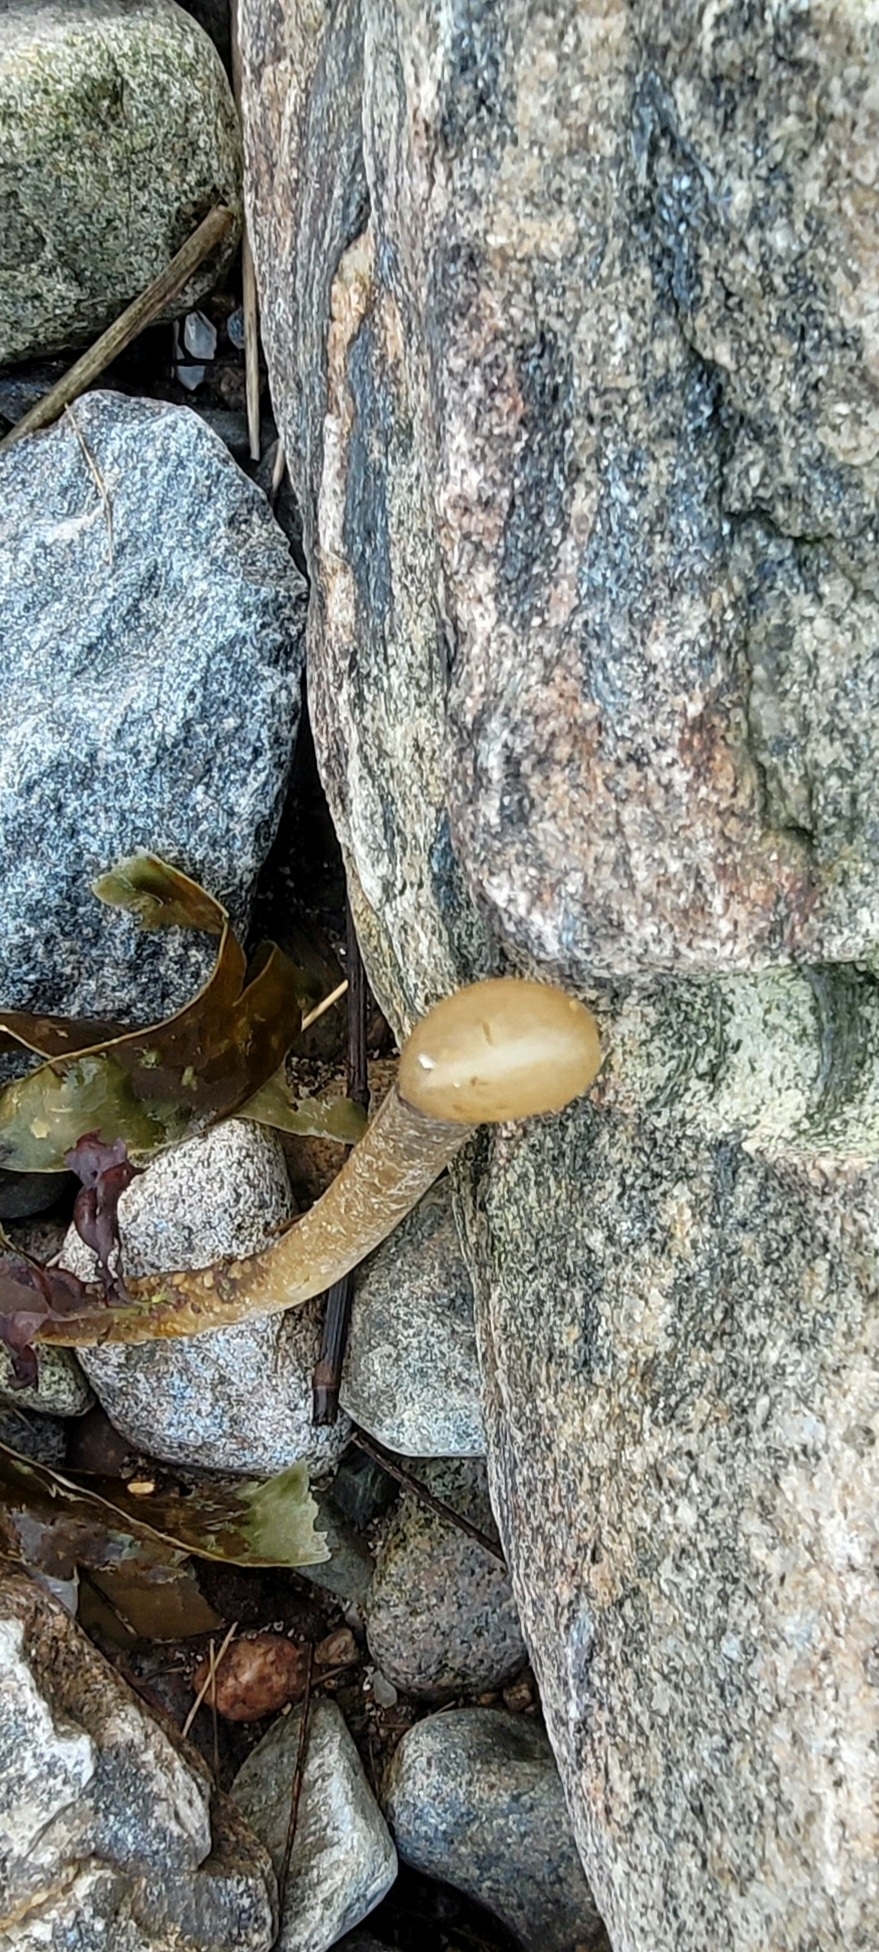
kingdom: Chromista
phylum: Ochrophyta
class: Phaeophyceae
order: Laminariales
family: Laminariaceae
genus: Laminaria
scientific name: Laminaria digitata
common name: Oarweed
